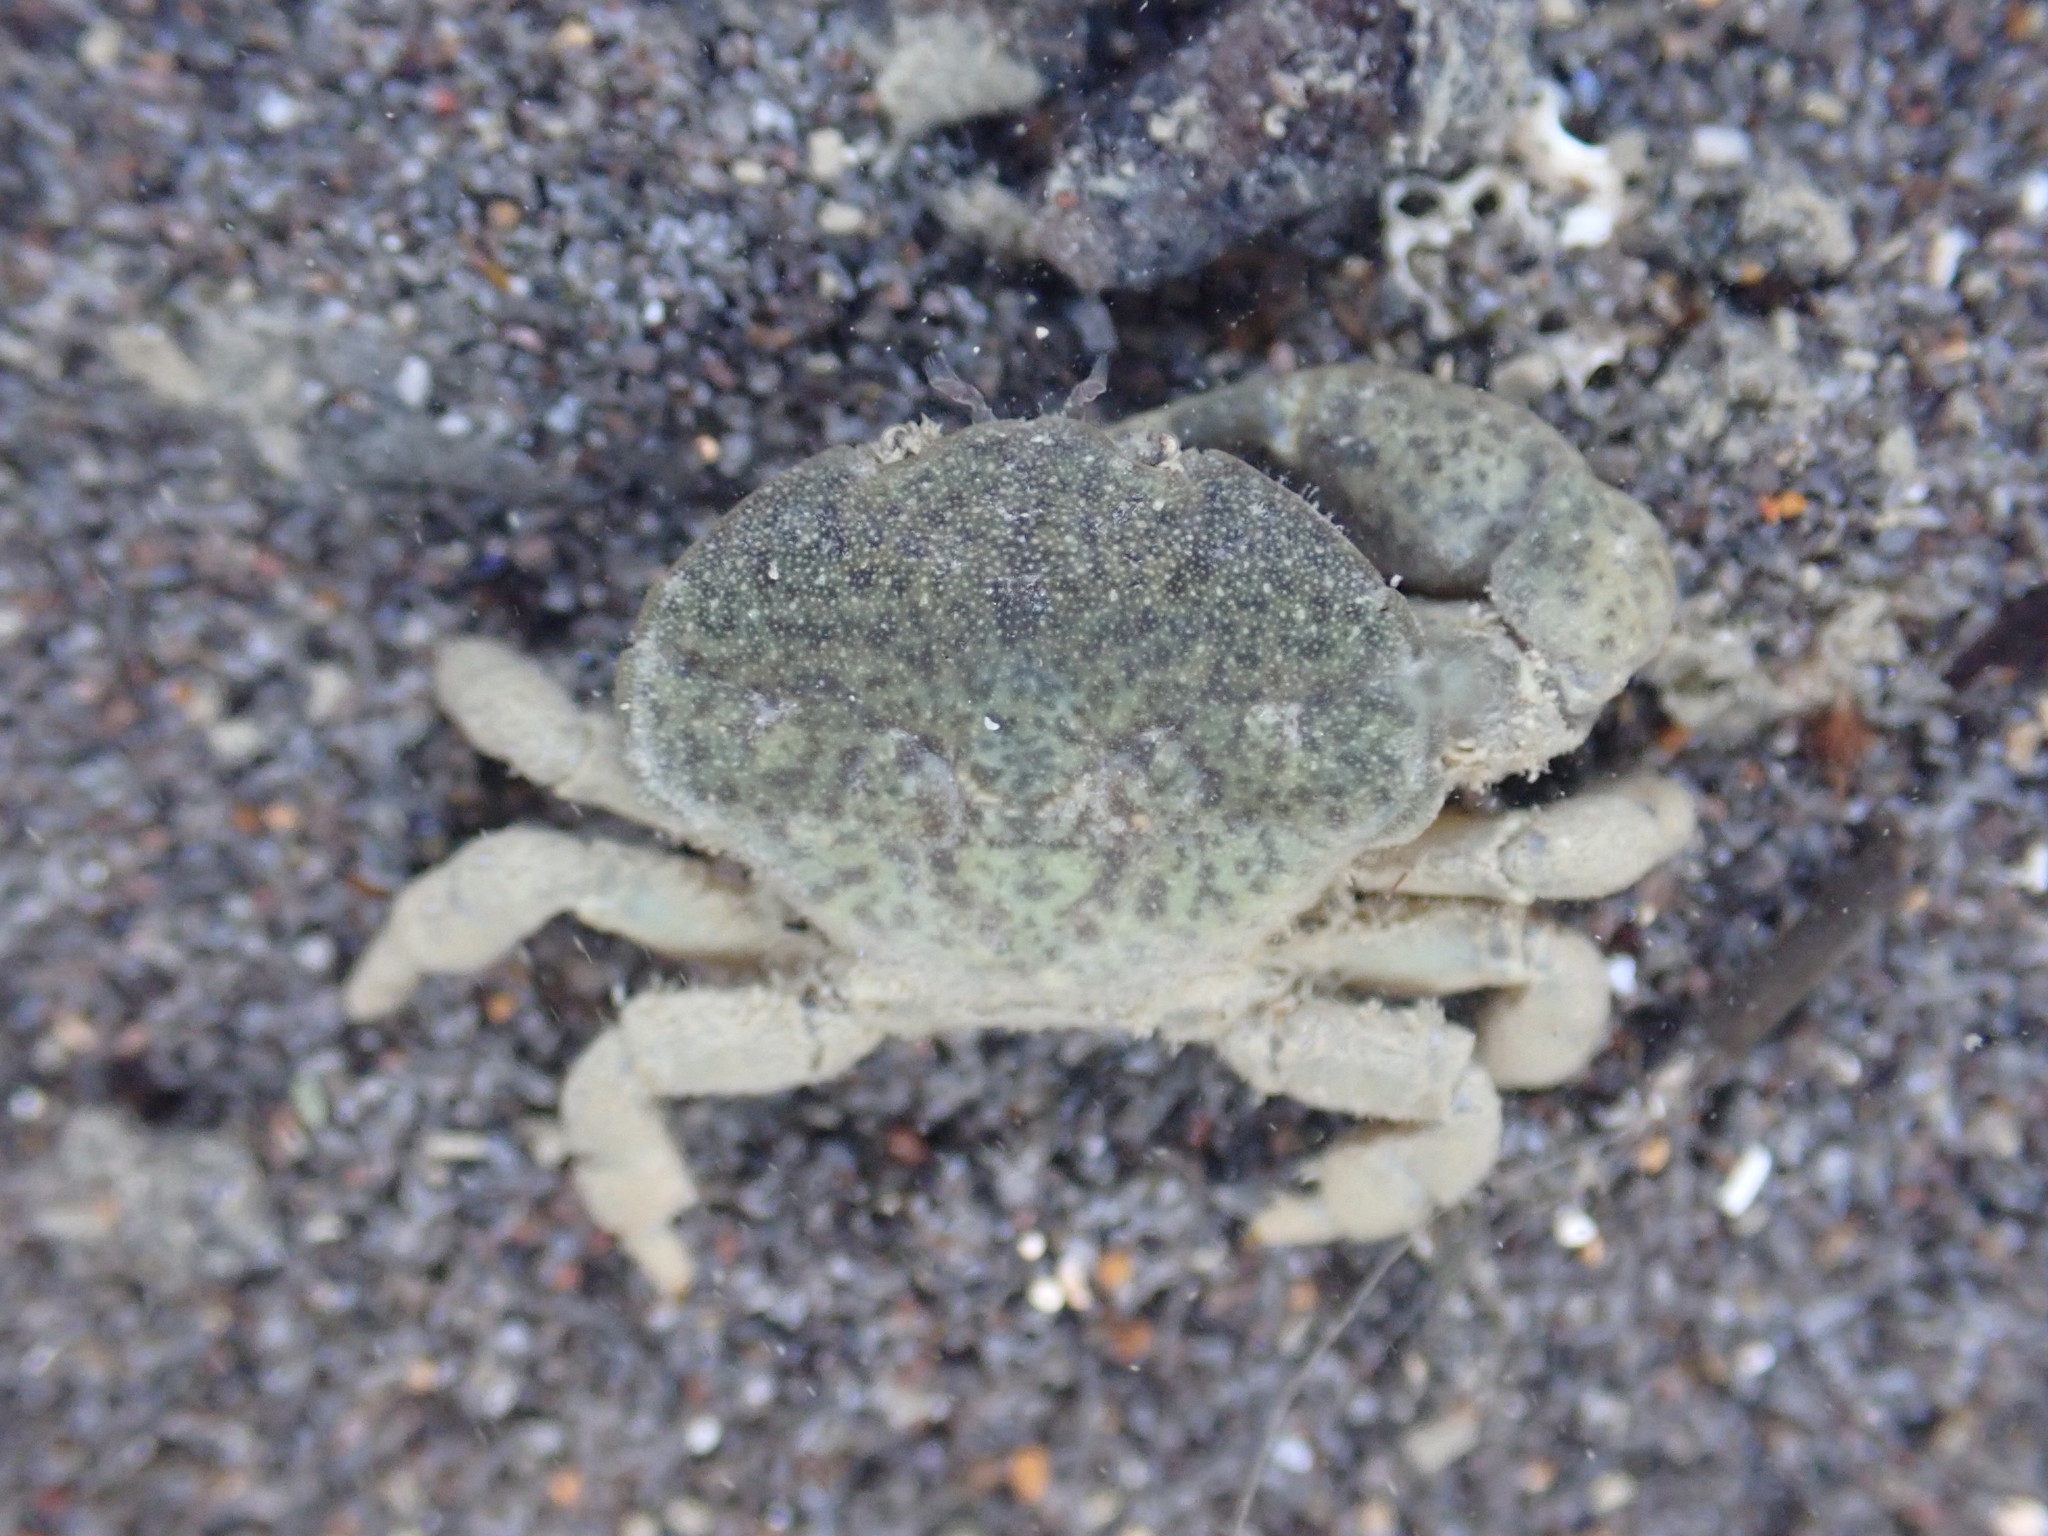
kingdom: Animalia
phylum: Arthropoda
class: Malacostraca
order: Decapoda
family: Heteroziidae
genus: Heterozius
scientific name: Heterozius rotundifrons
